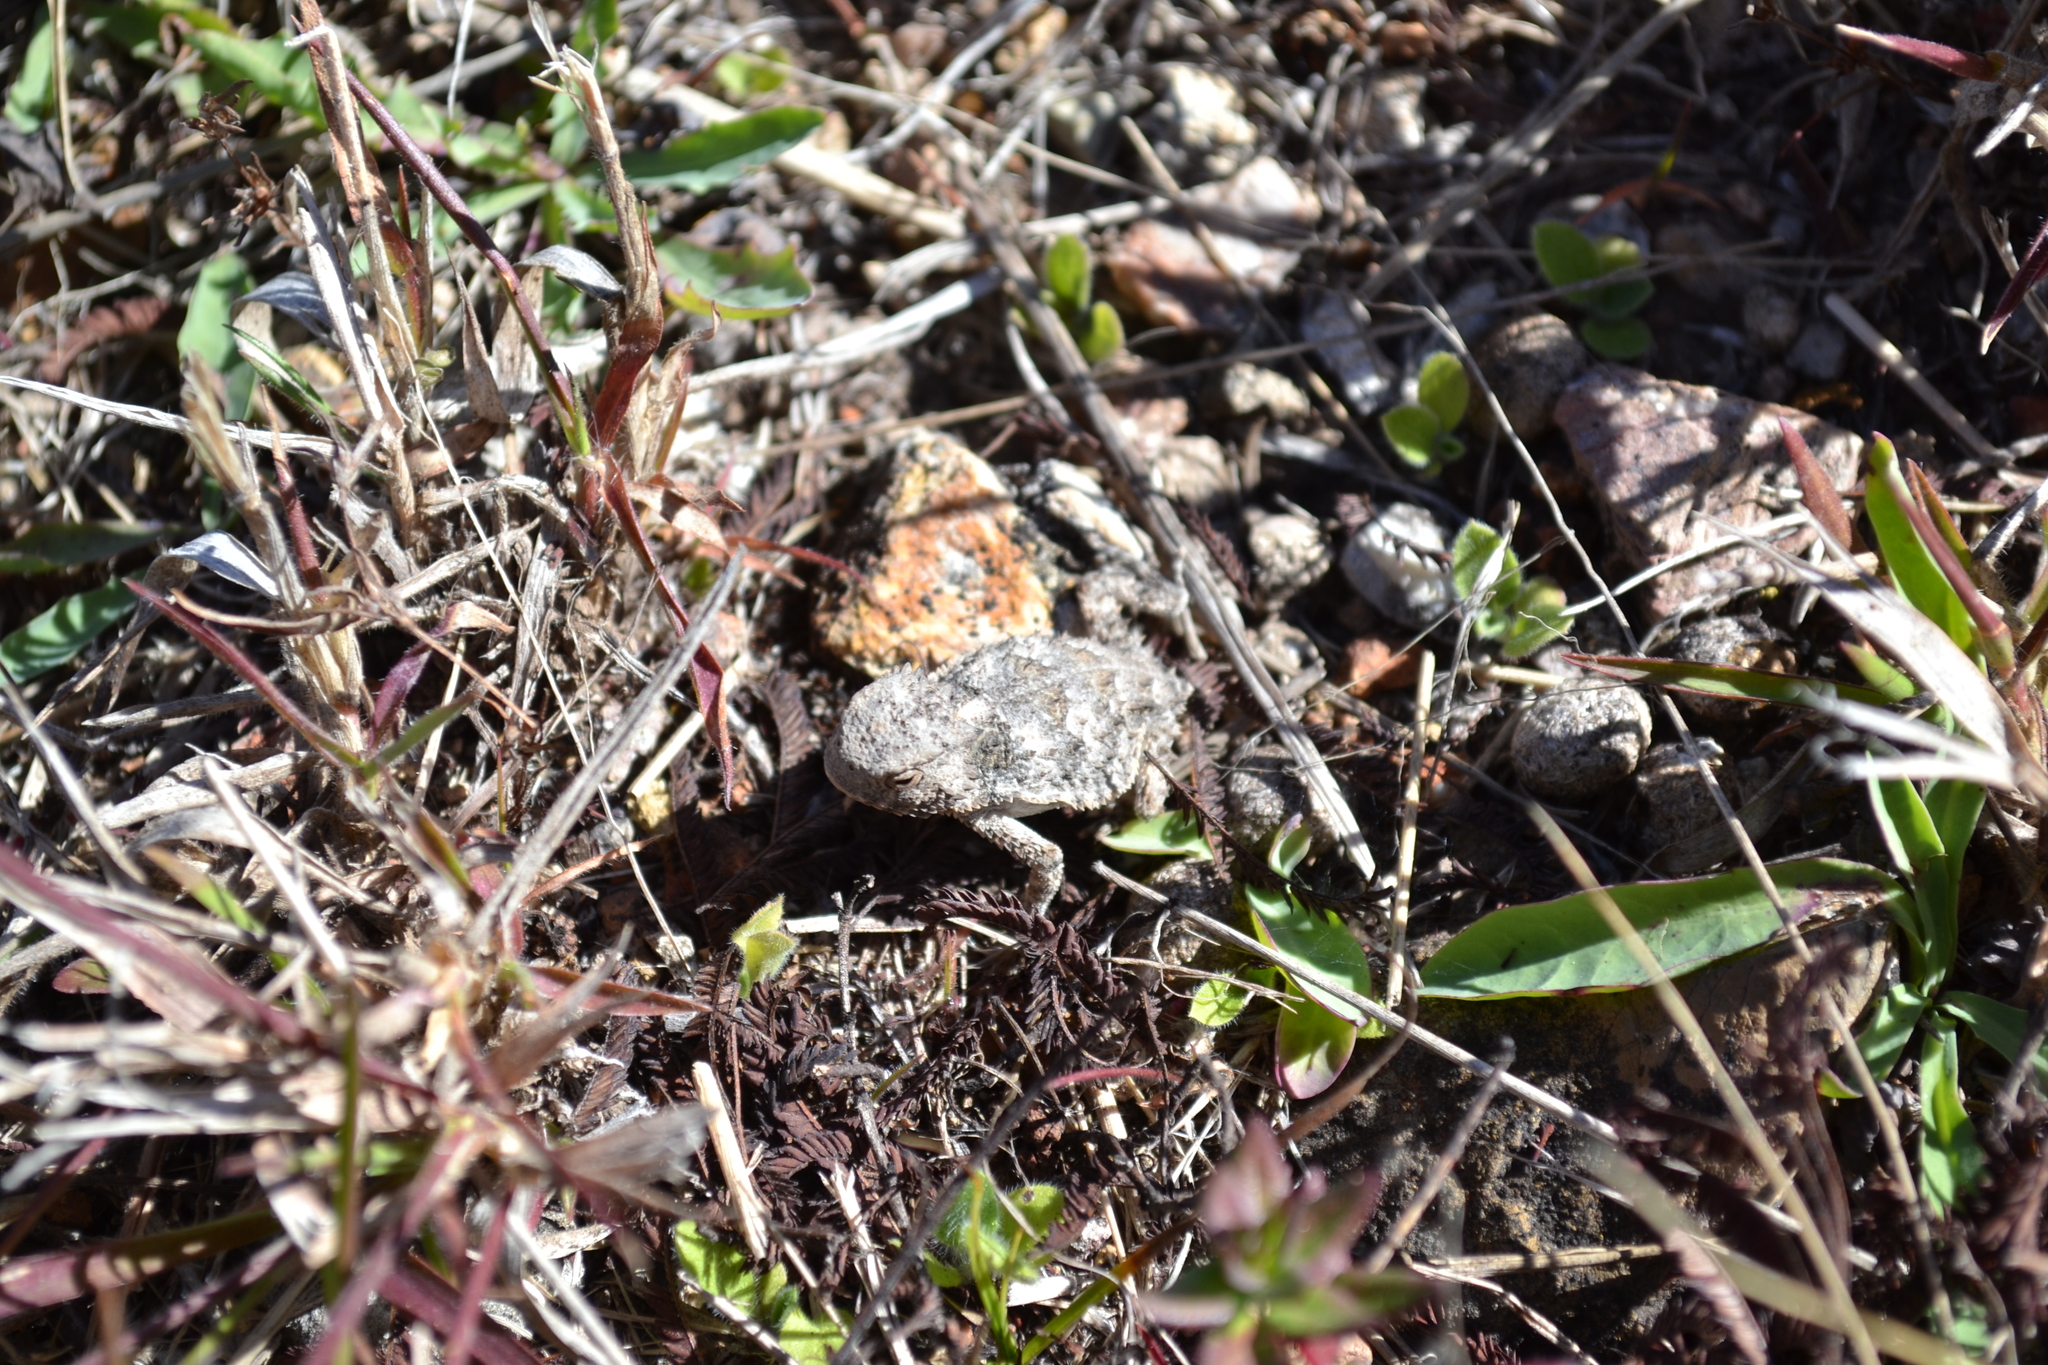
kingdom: Animalia
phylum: Chordata
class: Squamata
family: Phrynosomatidae
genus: Phrynosoma
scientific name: Phrynosoma braconnieri
